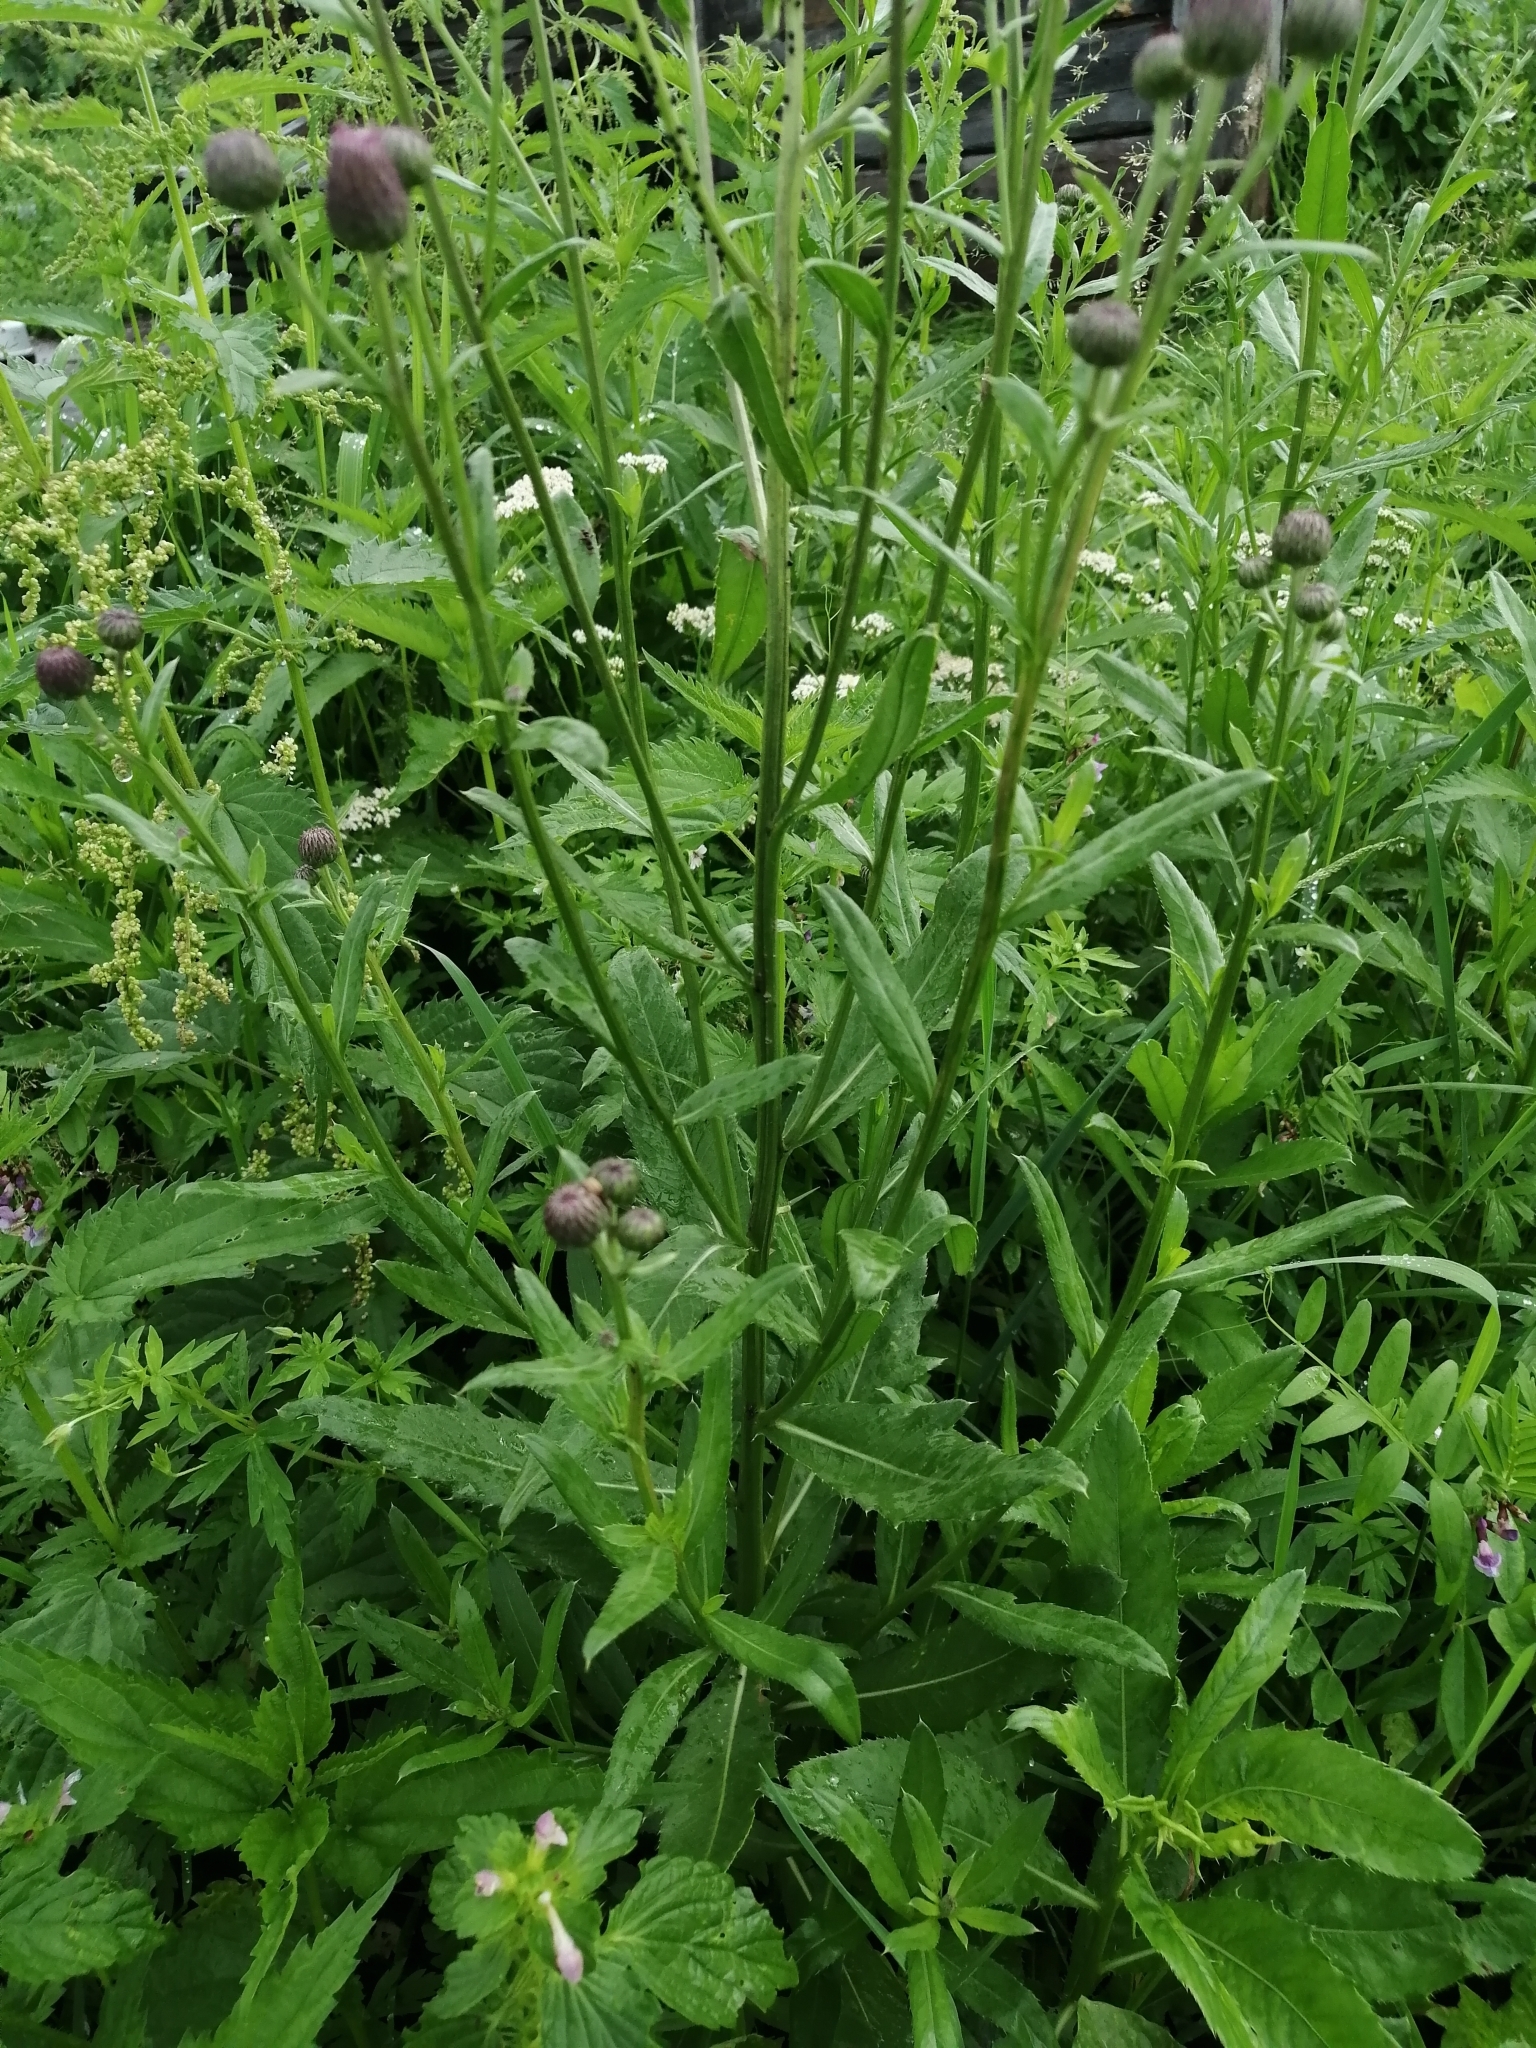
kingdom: Plantae
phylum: Tracheophyta
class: Magnoliopsida
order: Asterales
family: Asteraceae
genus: Cirsium
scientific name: Cirsium arvense
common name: Creeping thistle
